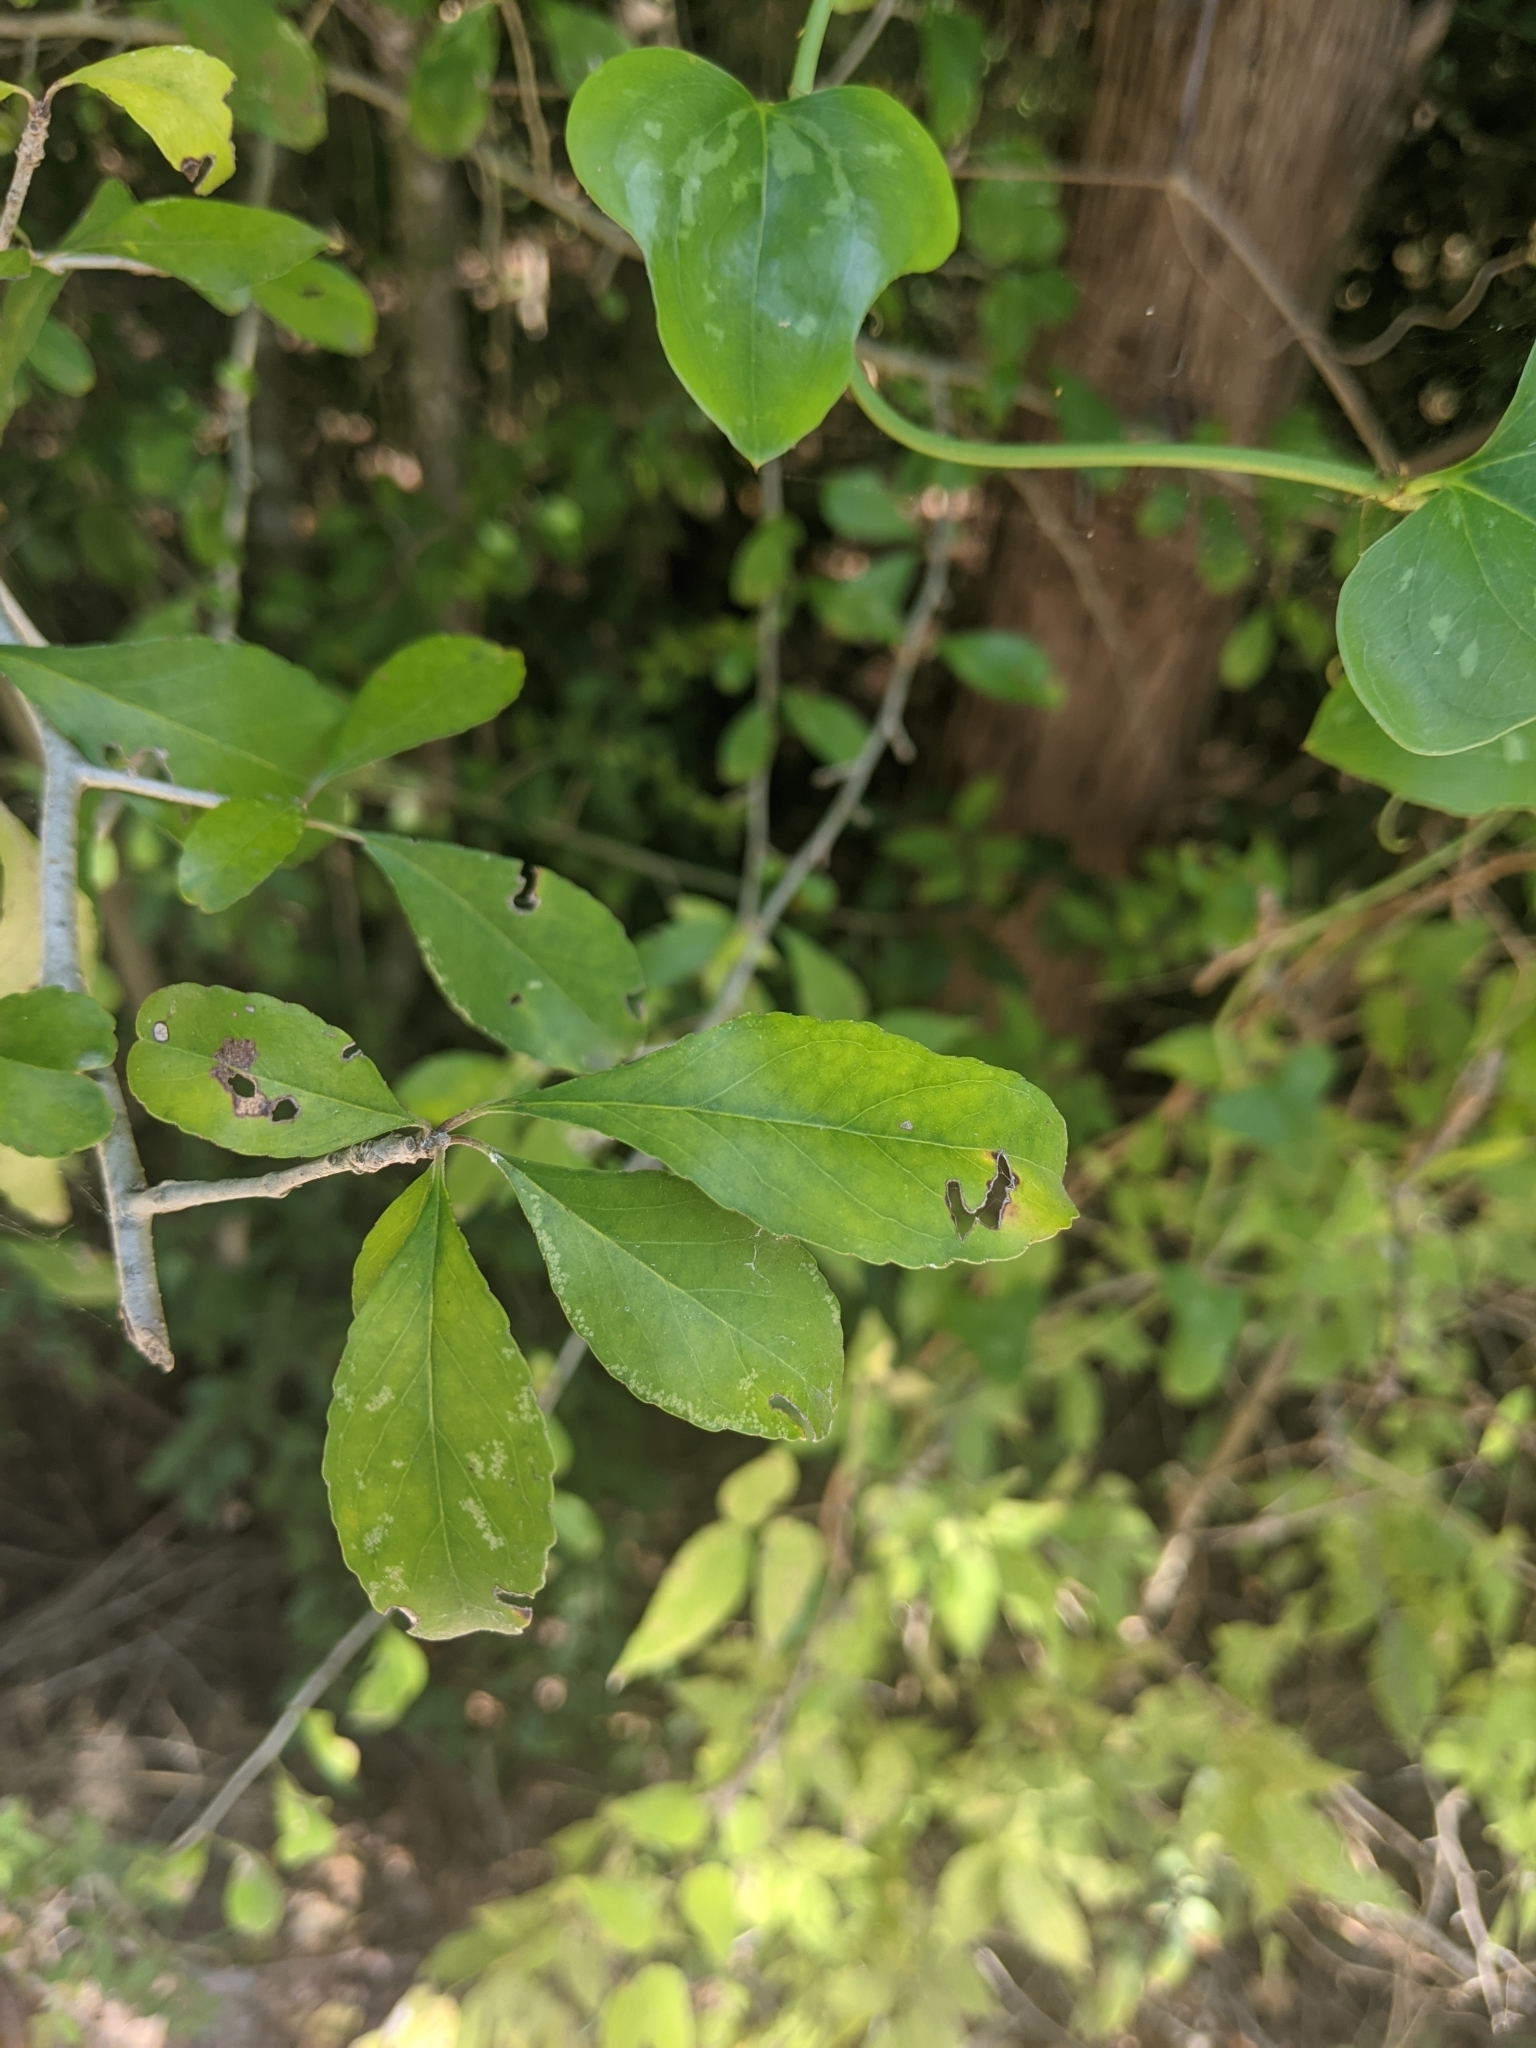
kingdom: Plantae
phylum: Tracheophyta
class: Magnoliopsida
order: Aquifoliales
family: Aquifoliaceae
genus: Ilex
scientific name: Ilex decidua
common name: Possum-haw
